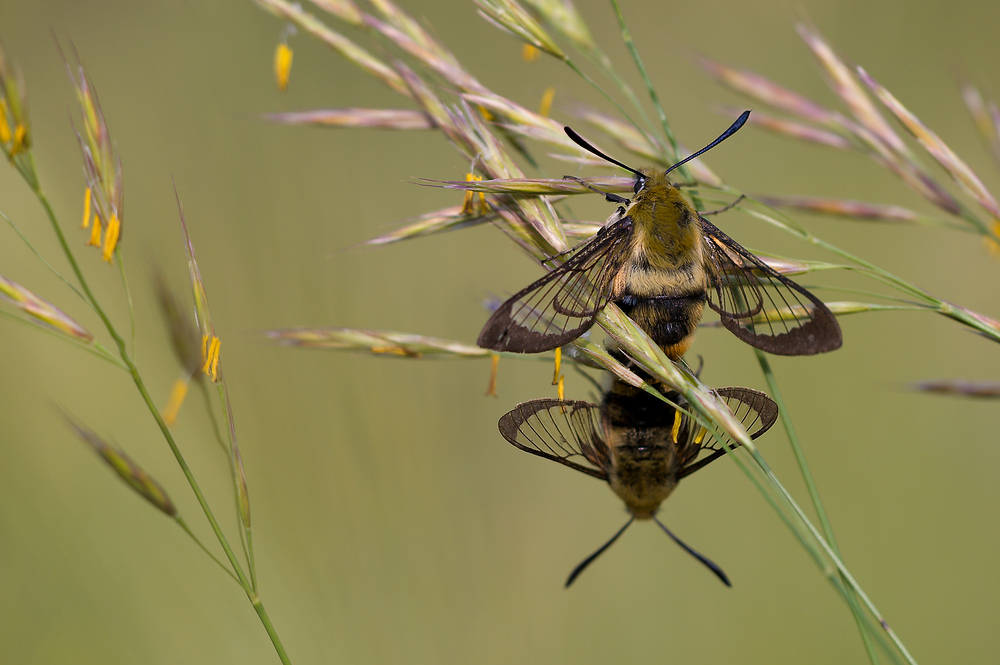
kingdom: Animalia
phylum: Arthropoda
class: Insecta
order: Lepidoptera
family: Sphingidae
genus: Hemaris
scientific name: Hemaris tityus
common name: Narrow-bordered bee hawk-moth
